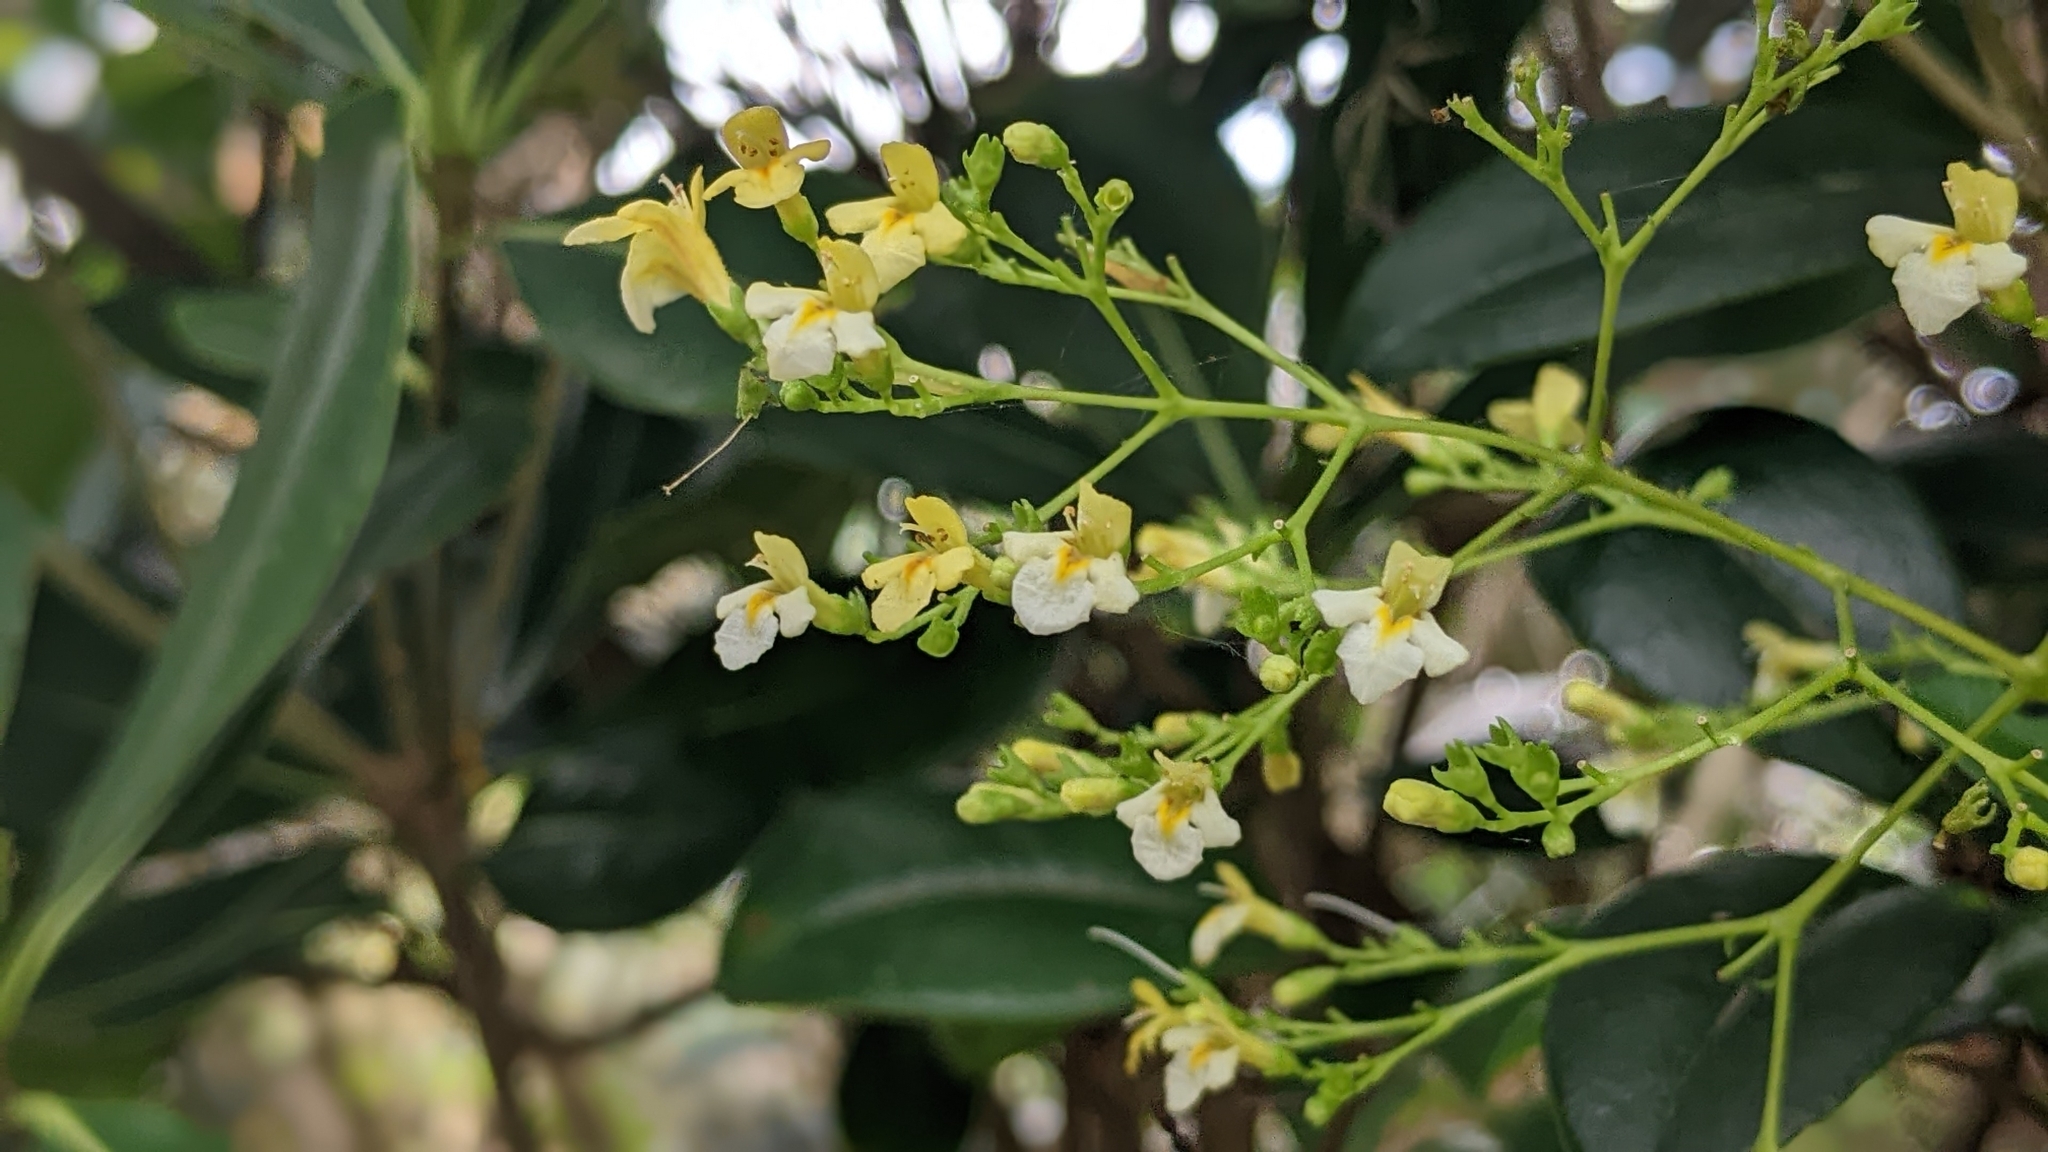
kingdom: Plantae
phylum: Tracheophyta
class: Magnoliopsida
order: Lamiales
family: Lamiaceae
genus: Premna
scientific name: Premna microphylla
